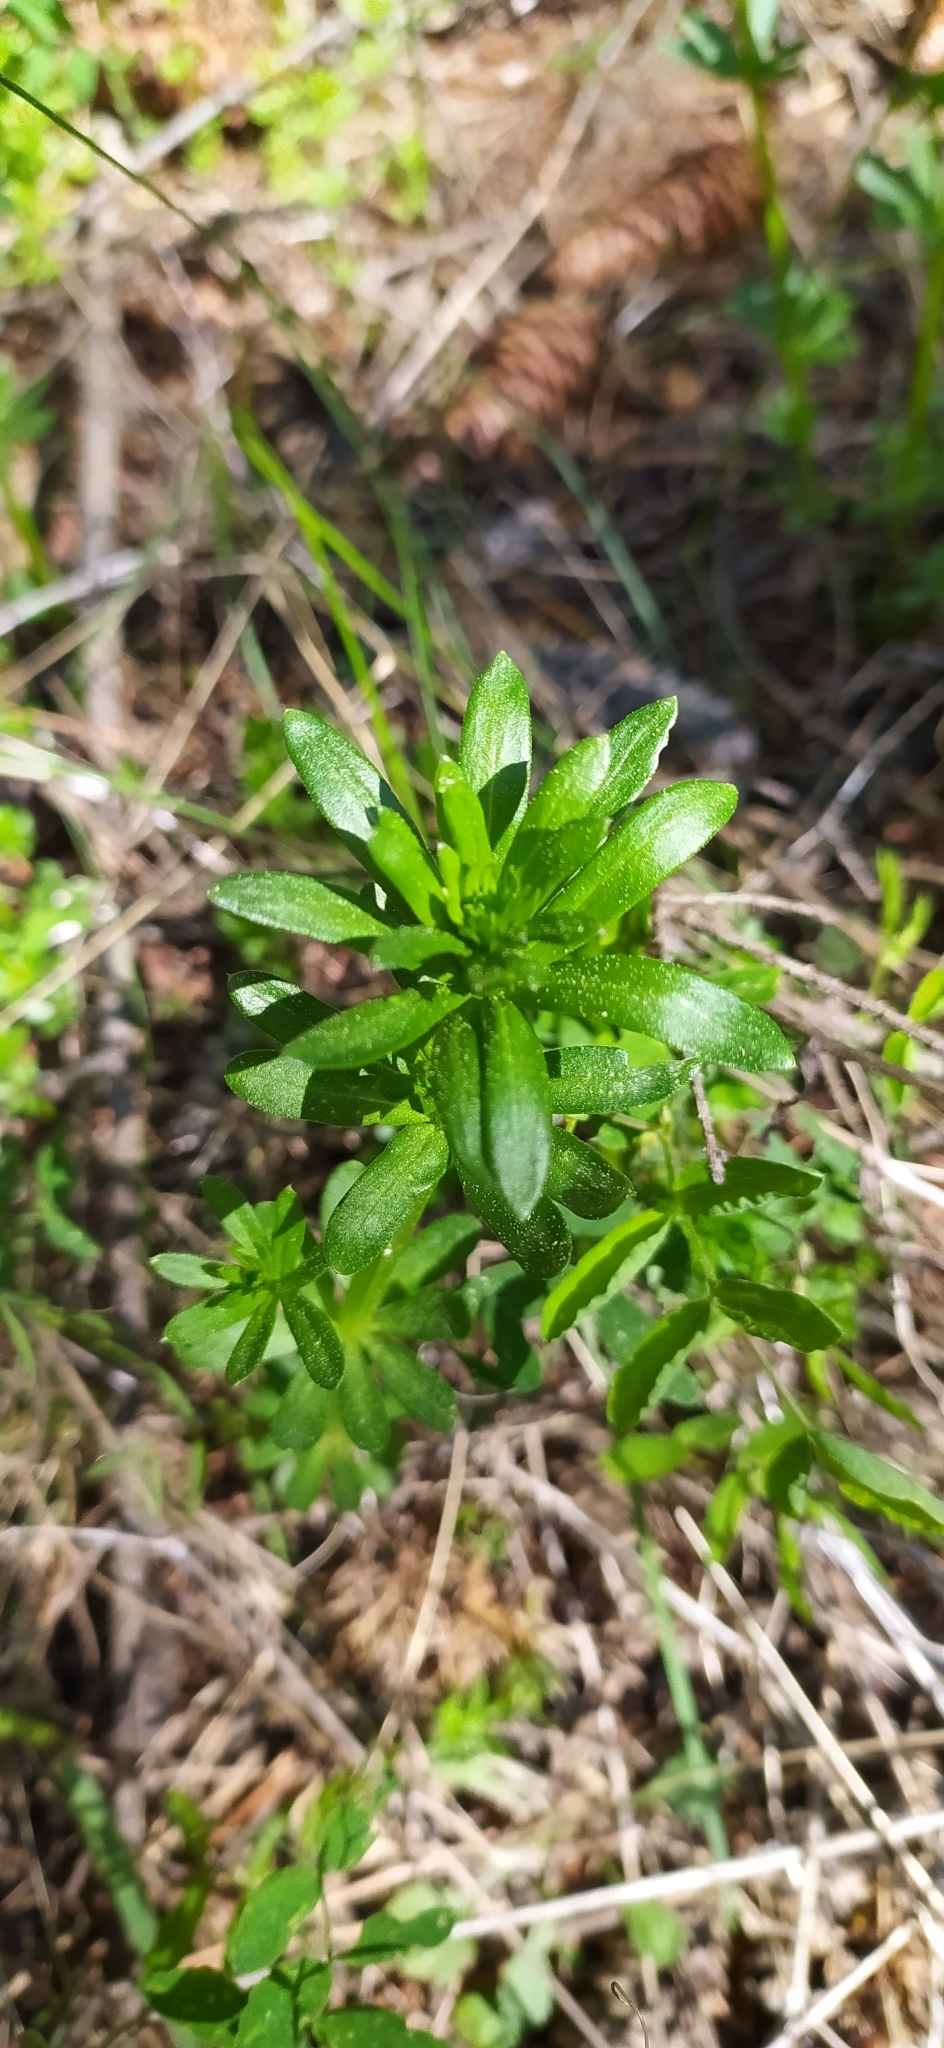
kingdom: Plantae
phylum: Tracheophyta
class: Magnoliopsida
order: Gentianales
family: Rubiaceae
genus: Galium
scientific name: Galium mollugo
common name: Hedge bedstraw
